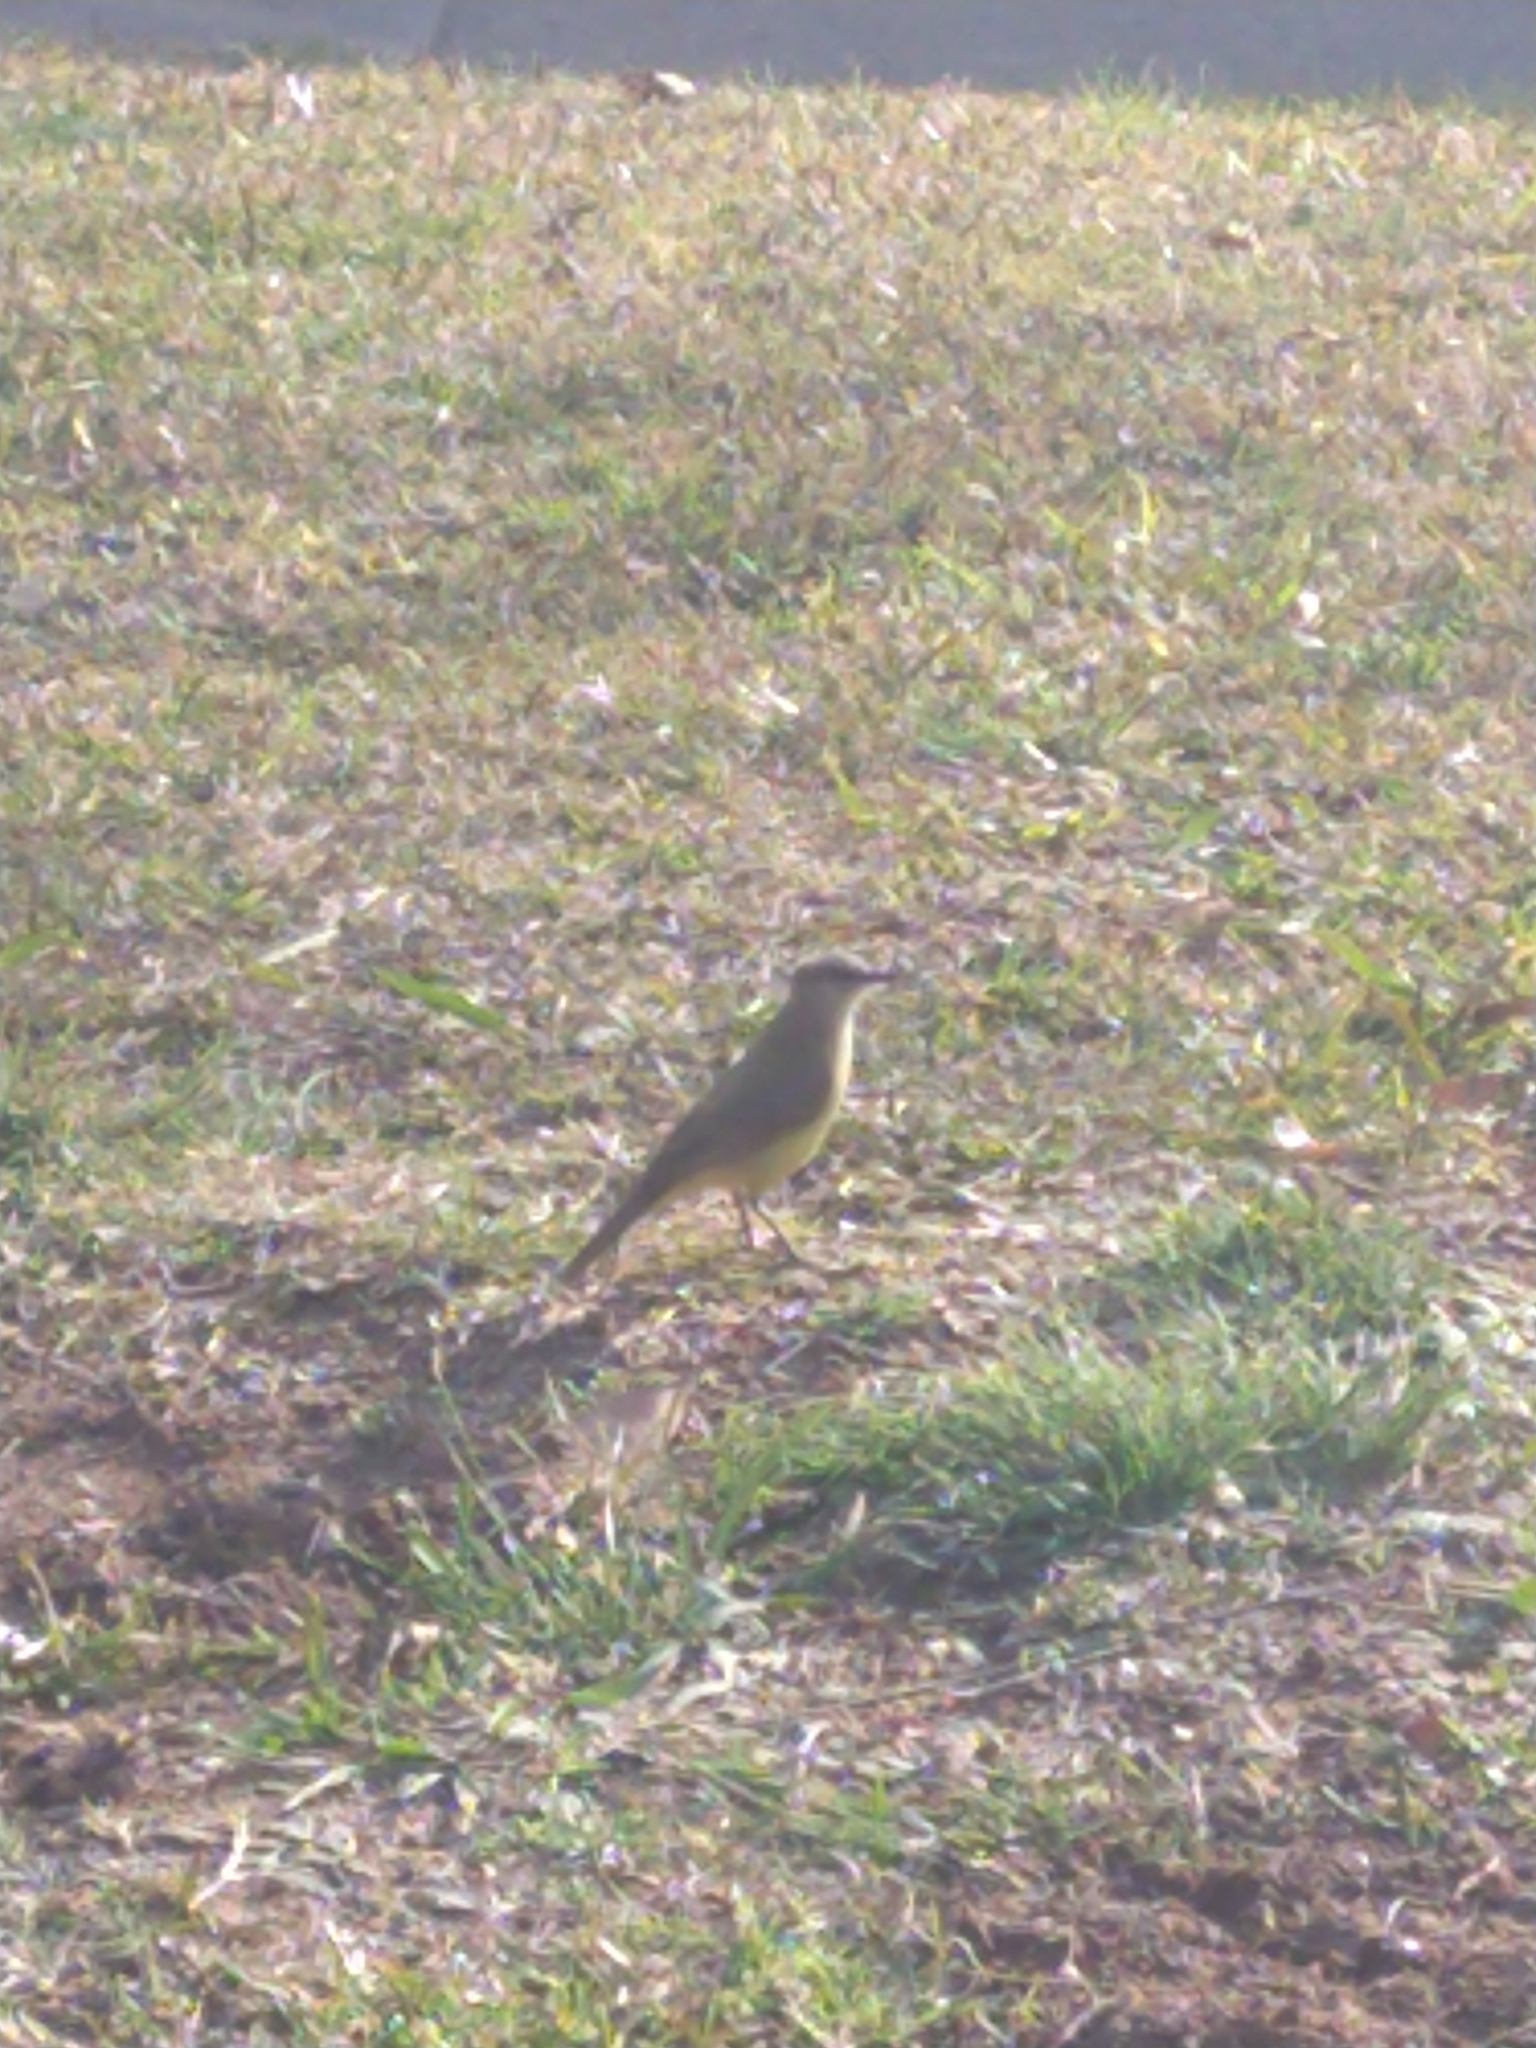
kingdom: Animalia
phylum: Chordata
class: Aves
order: Passeriformes
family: Tyrannidae
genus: Machetornis
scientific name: Machetornis rixosa
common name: Cattle tyrant
